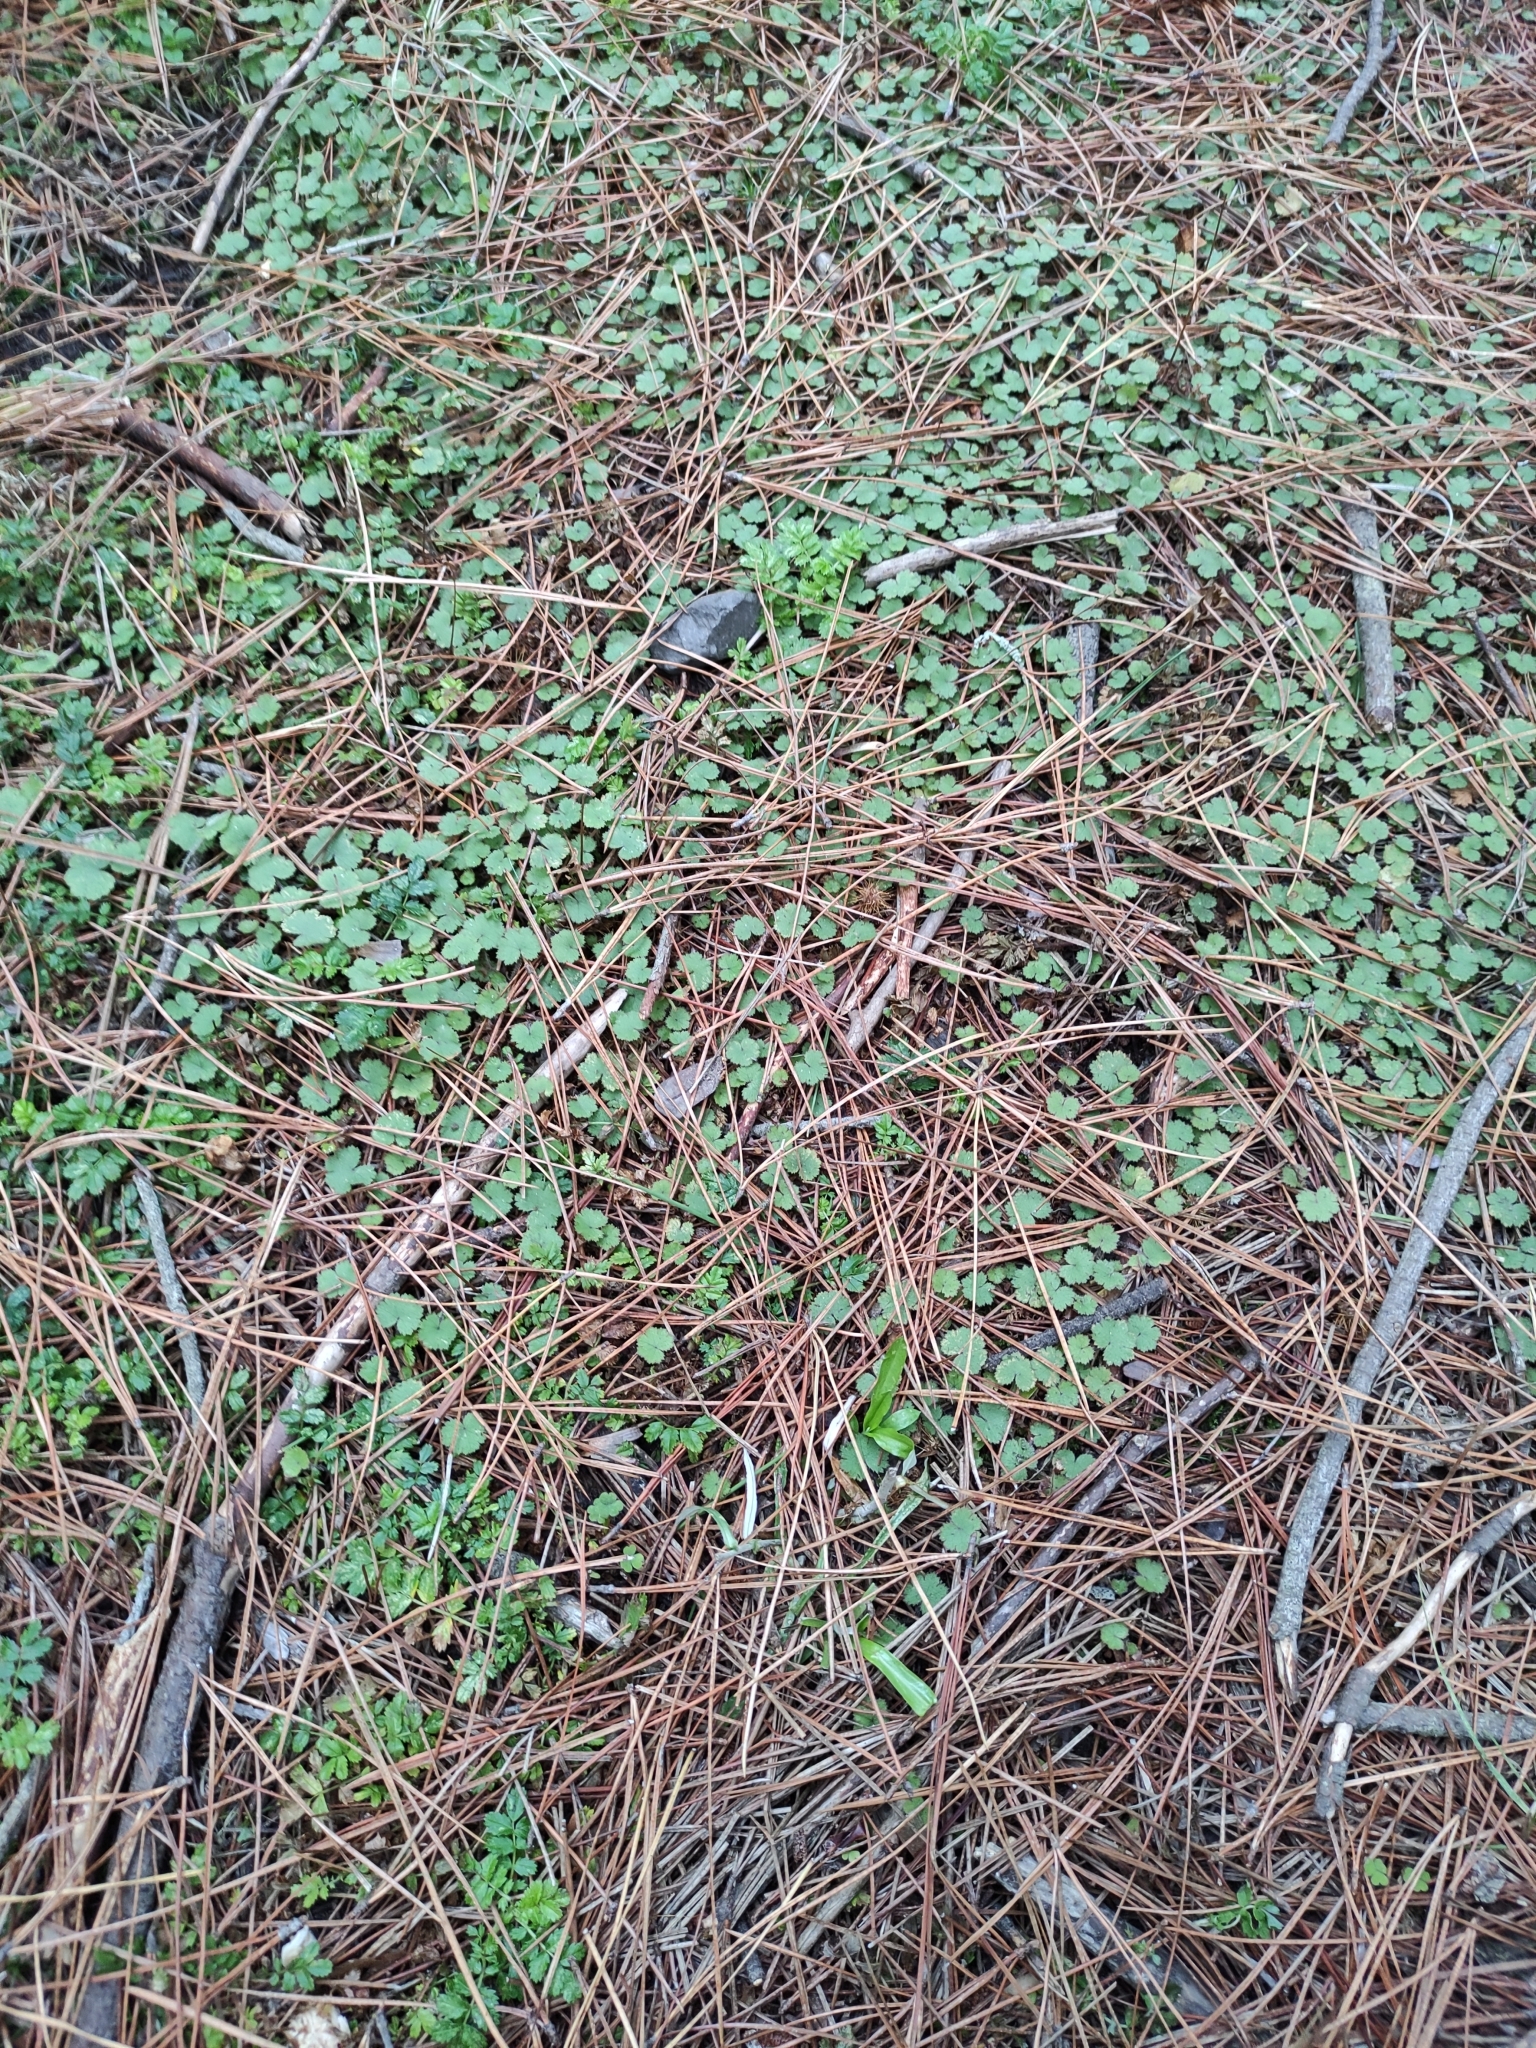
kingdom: Plantae
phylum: Tracheophyta
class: Magnoliopsida
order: Apiales
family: Araliaceae
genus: Hydrocotyle
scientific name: Hydrocotyle moschata
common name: Hairy pennywort
